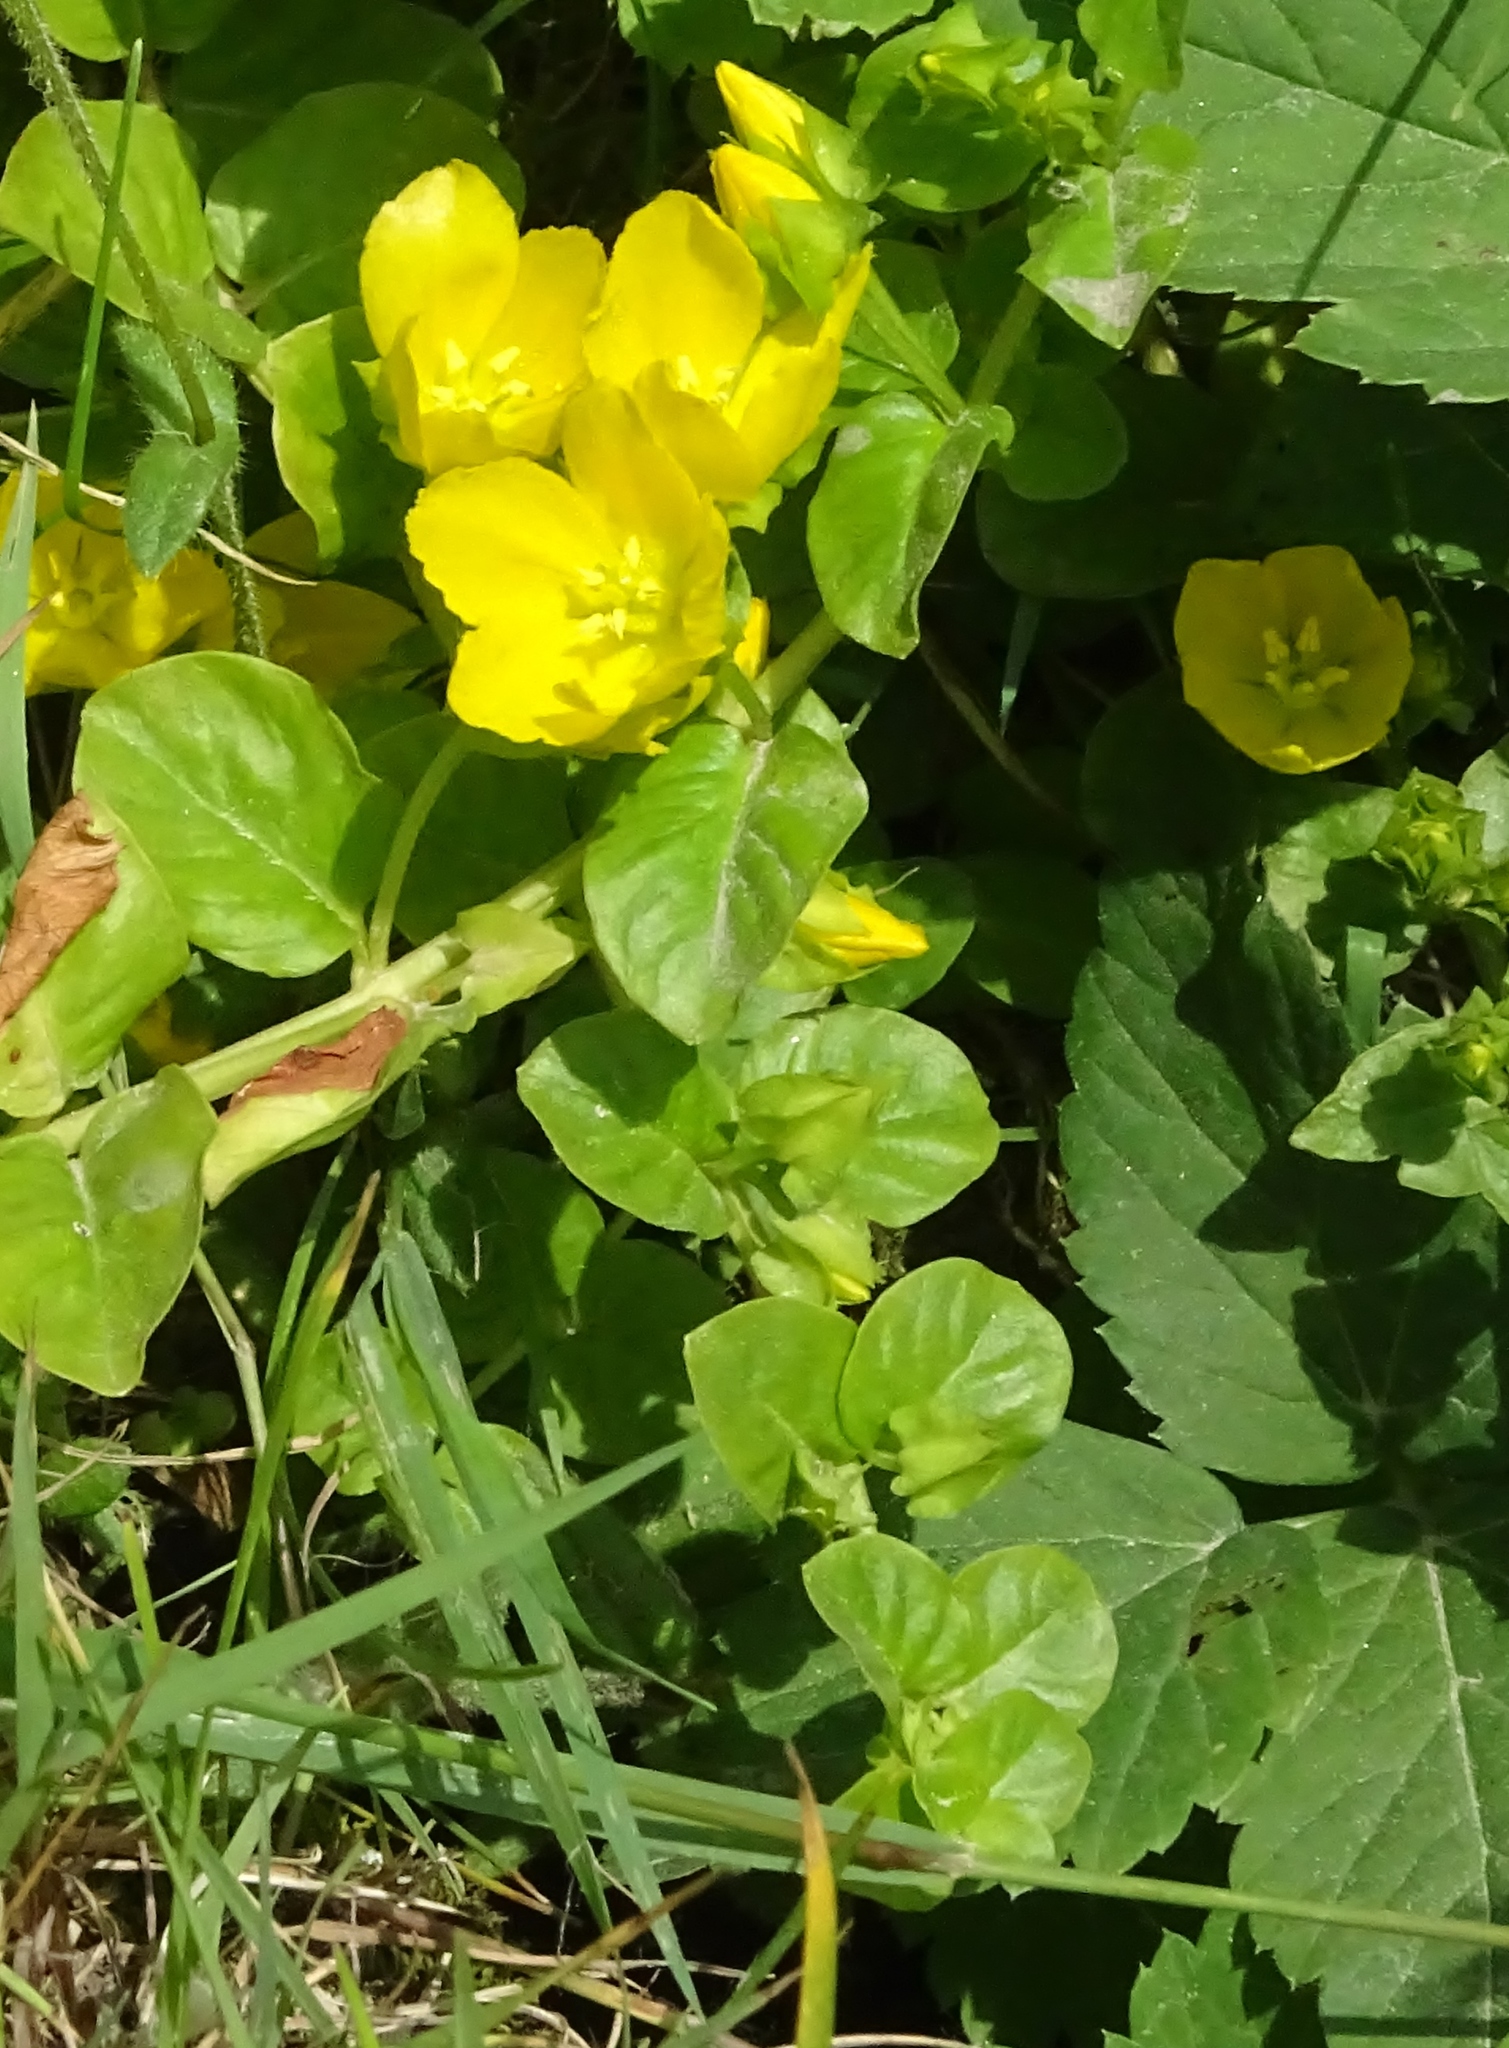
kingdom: Plantae
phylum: Tracheophyta
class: Magnoliopsida
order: Ericales
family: Primulaceae
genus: Lysimachia
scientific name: Lysimachia nummularia
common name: Moneywort
